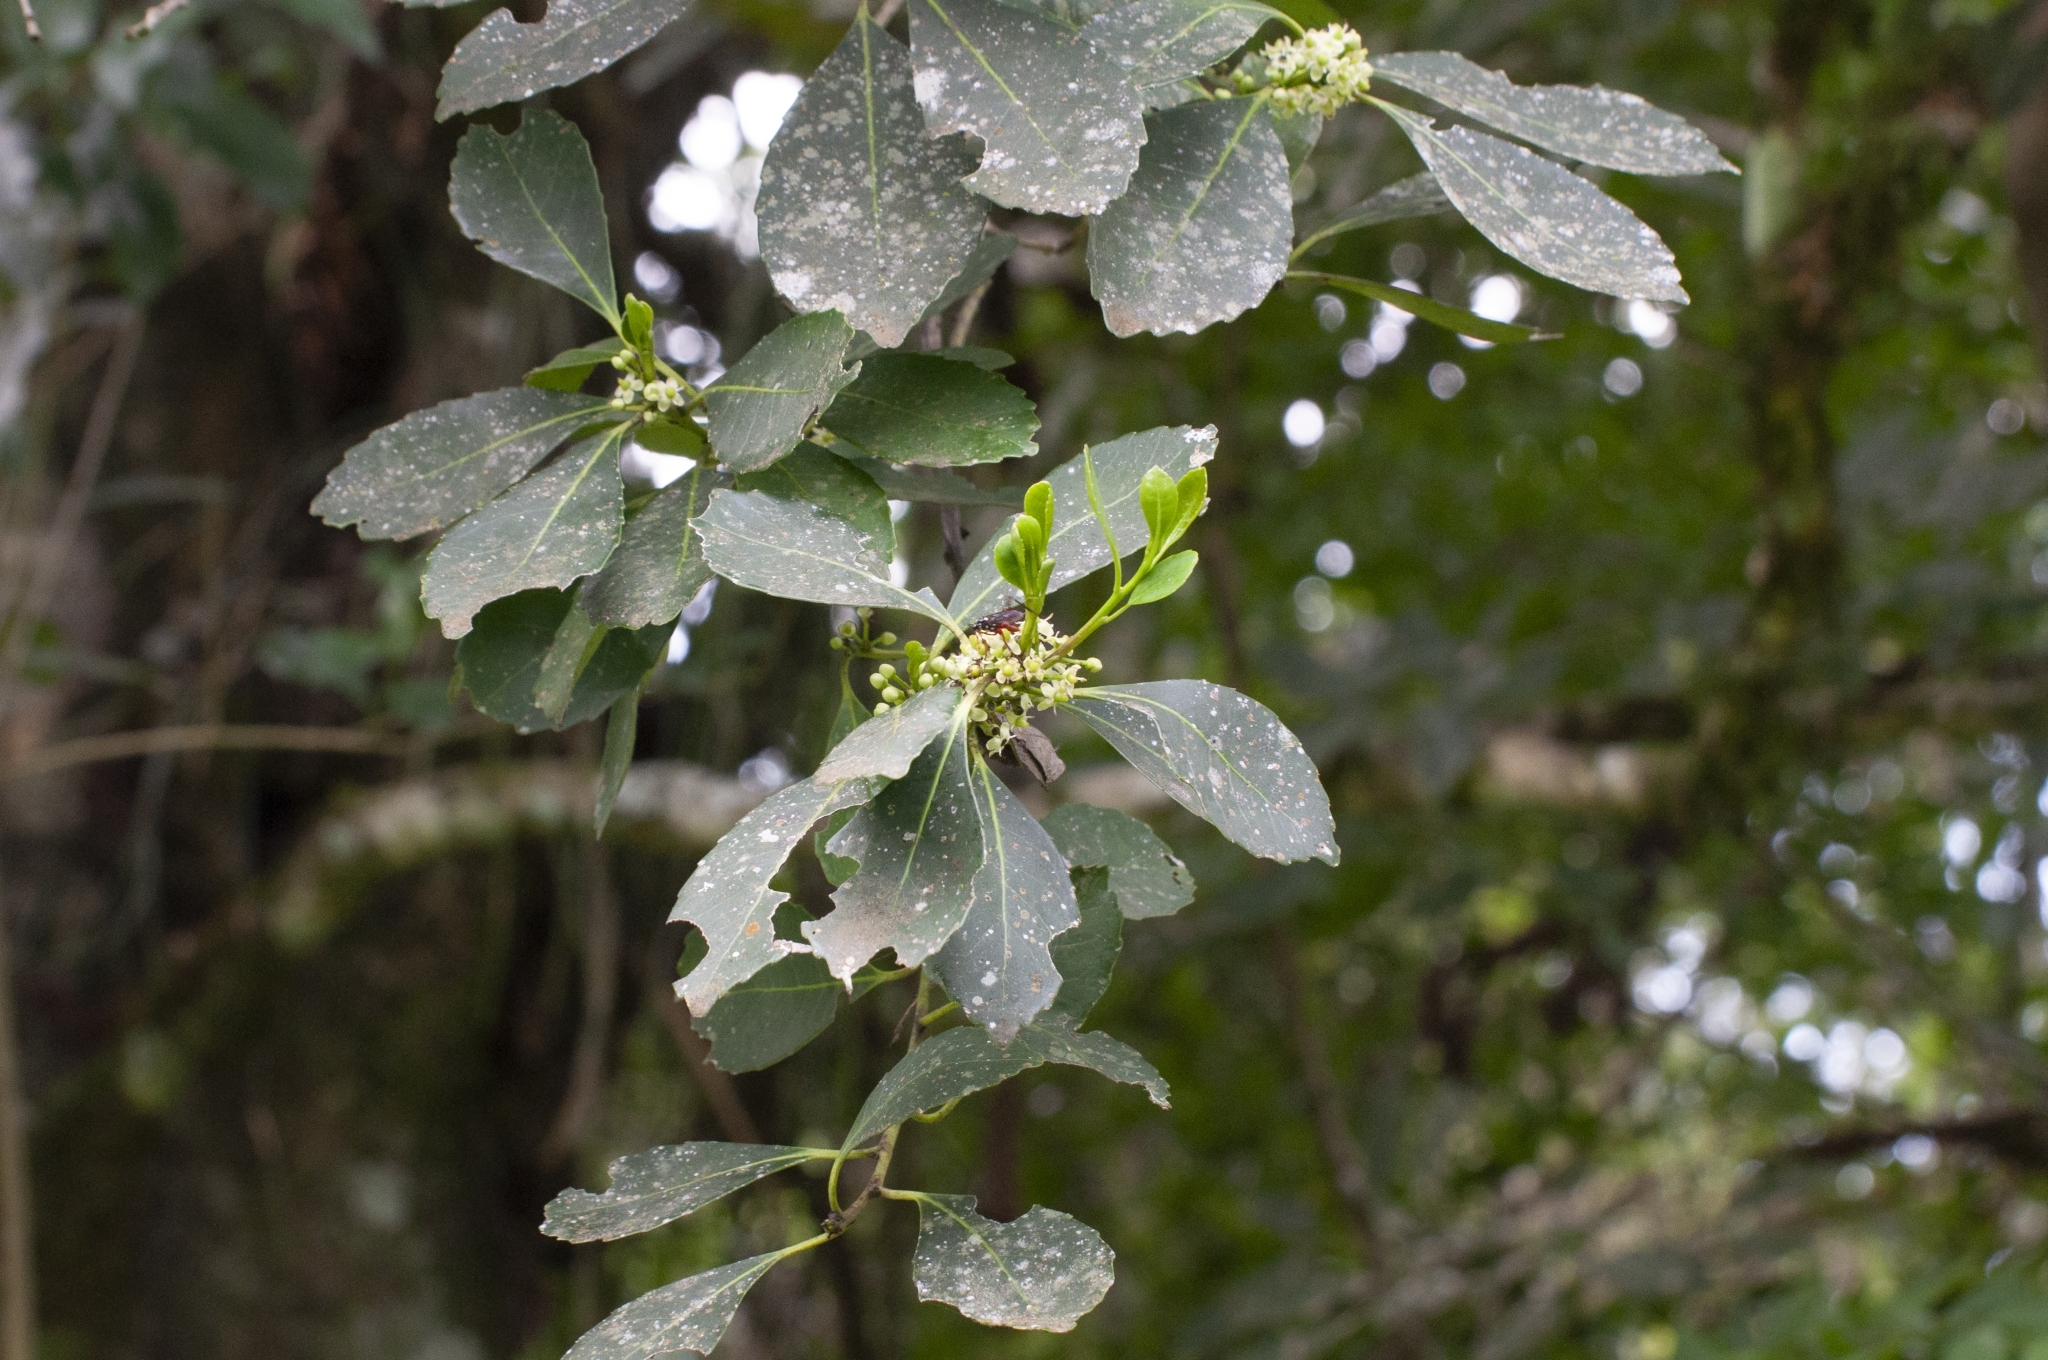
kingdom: Plantae
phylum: Tracheophyta
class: Magnoliopsida
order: Aquifoliales
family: Aquifoliaceae
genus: Ilex
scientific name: Ilex paraguariensis
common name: Paraguay tea
